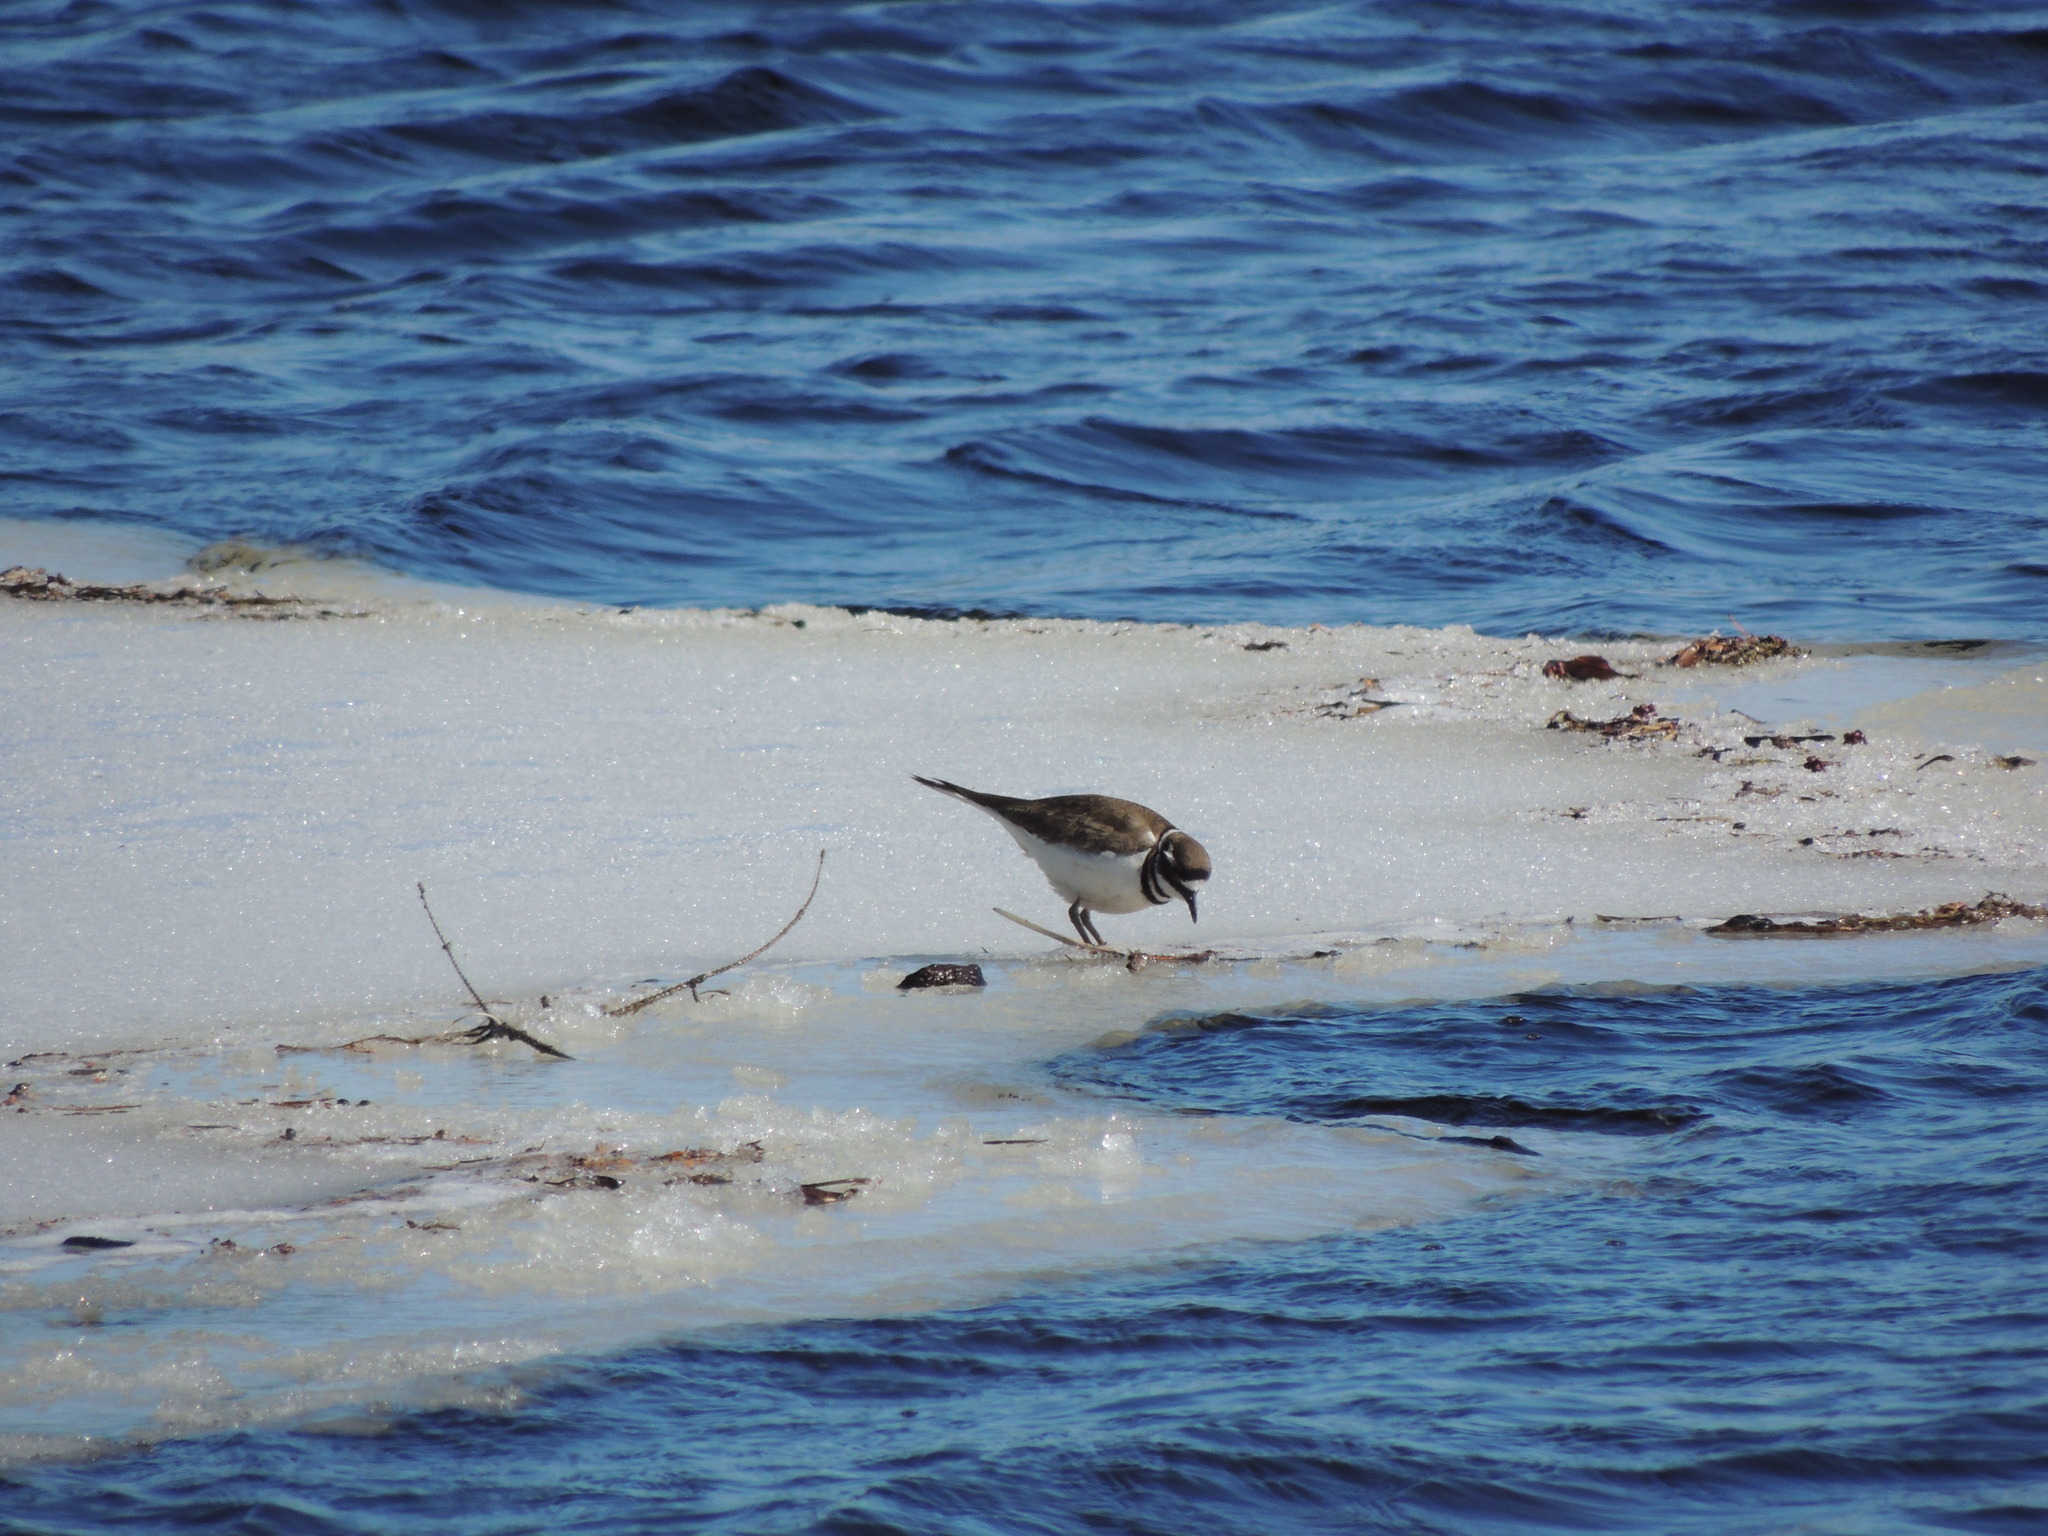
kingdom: Animalia
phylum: Chordata
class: Aves
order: Charadriiformes
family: Charadriidae
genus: Charadrius
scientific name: Charadrius vociferus
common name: Killdeer
